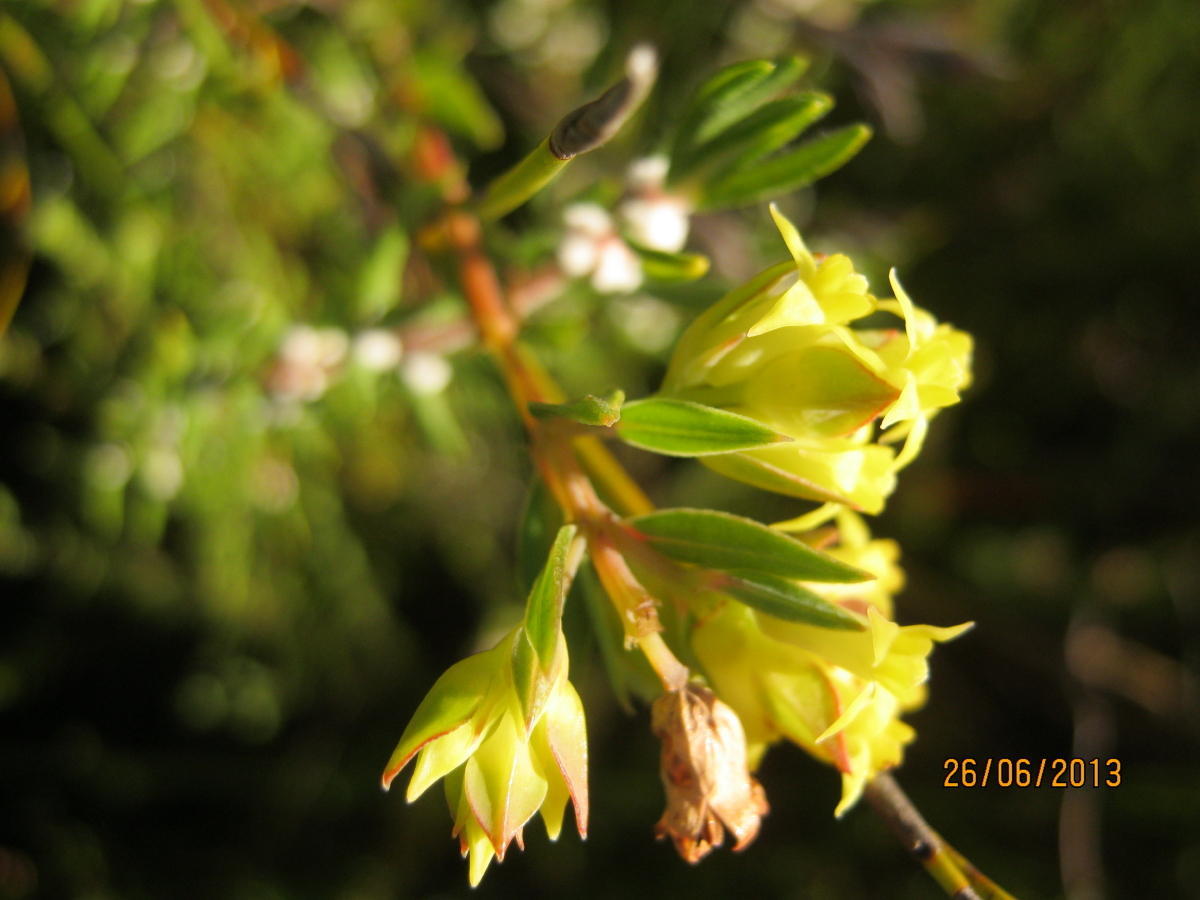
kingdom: Plantae
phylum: Tracheophyta
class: Magnoliopsida
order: Myrtales
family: Penaeaceae
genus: Penaea
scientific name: Penaea acutifolia
